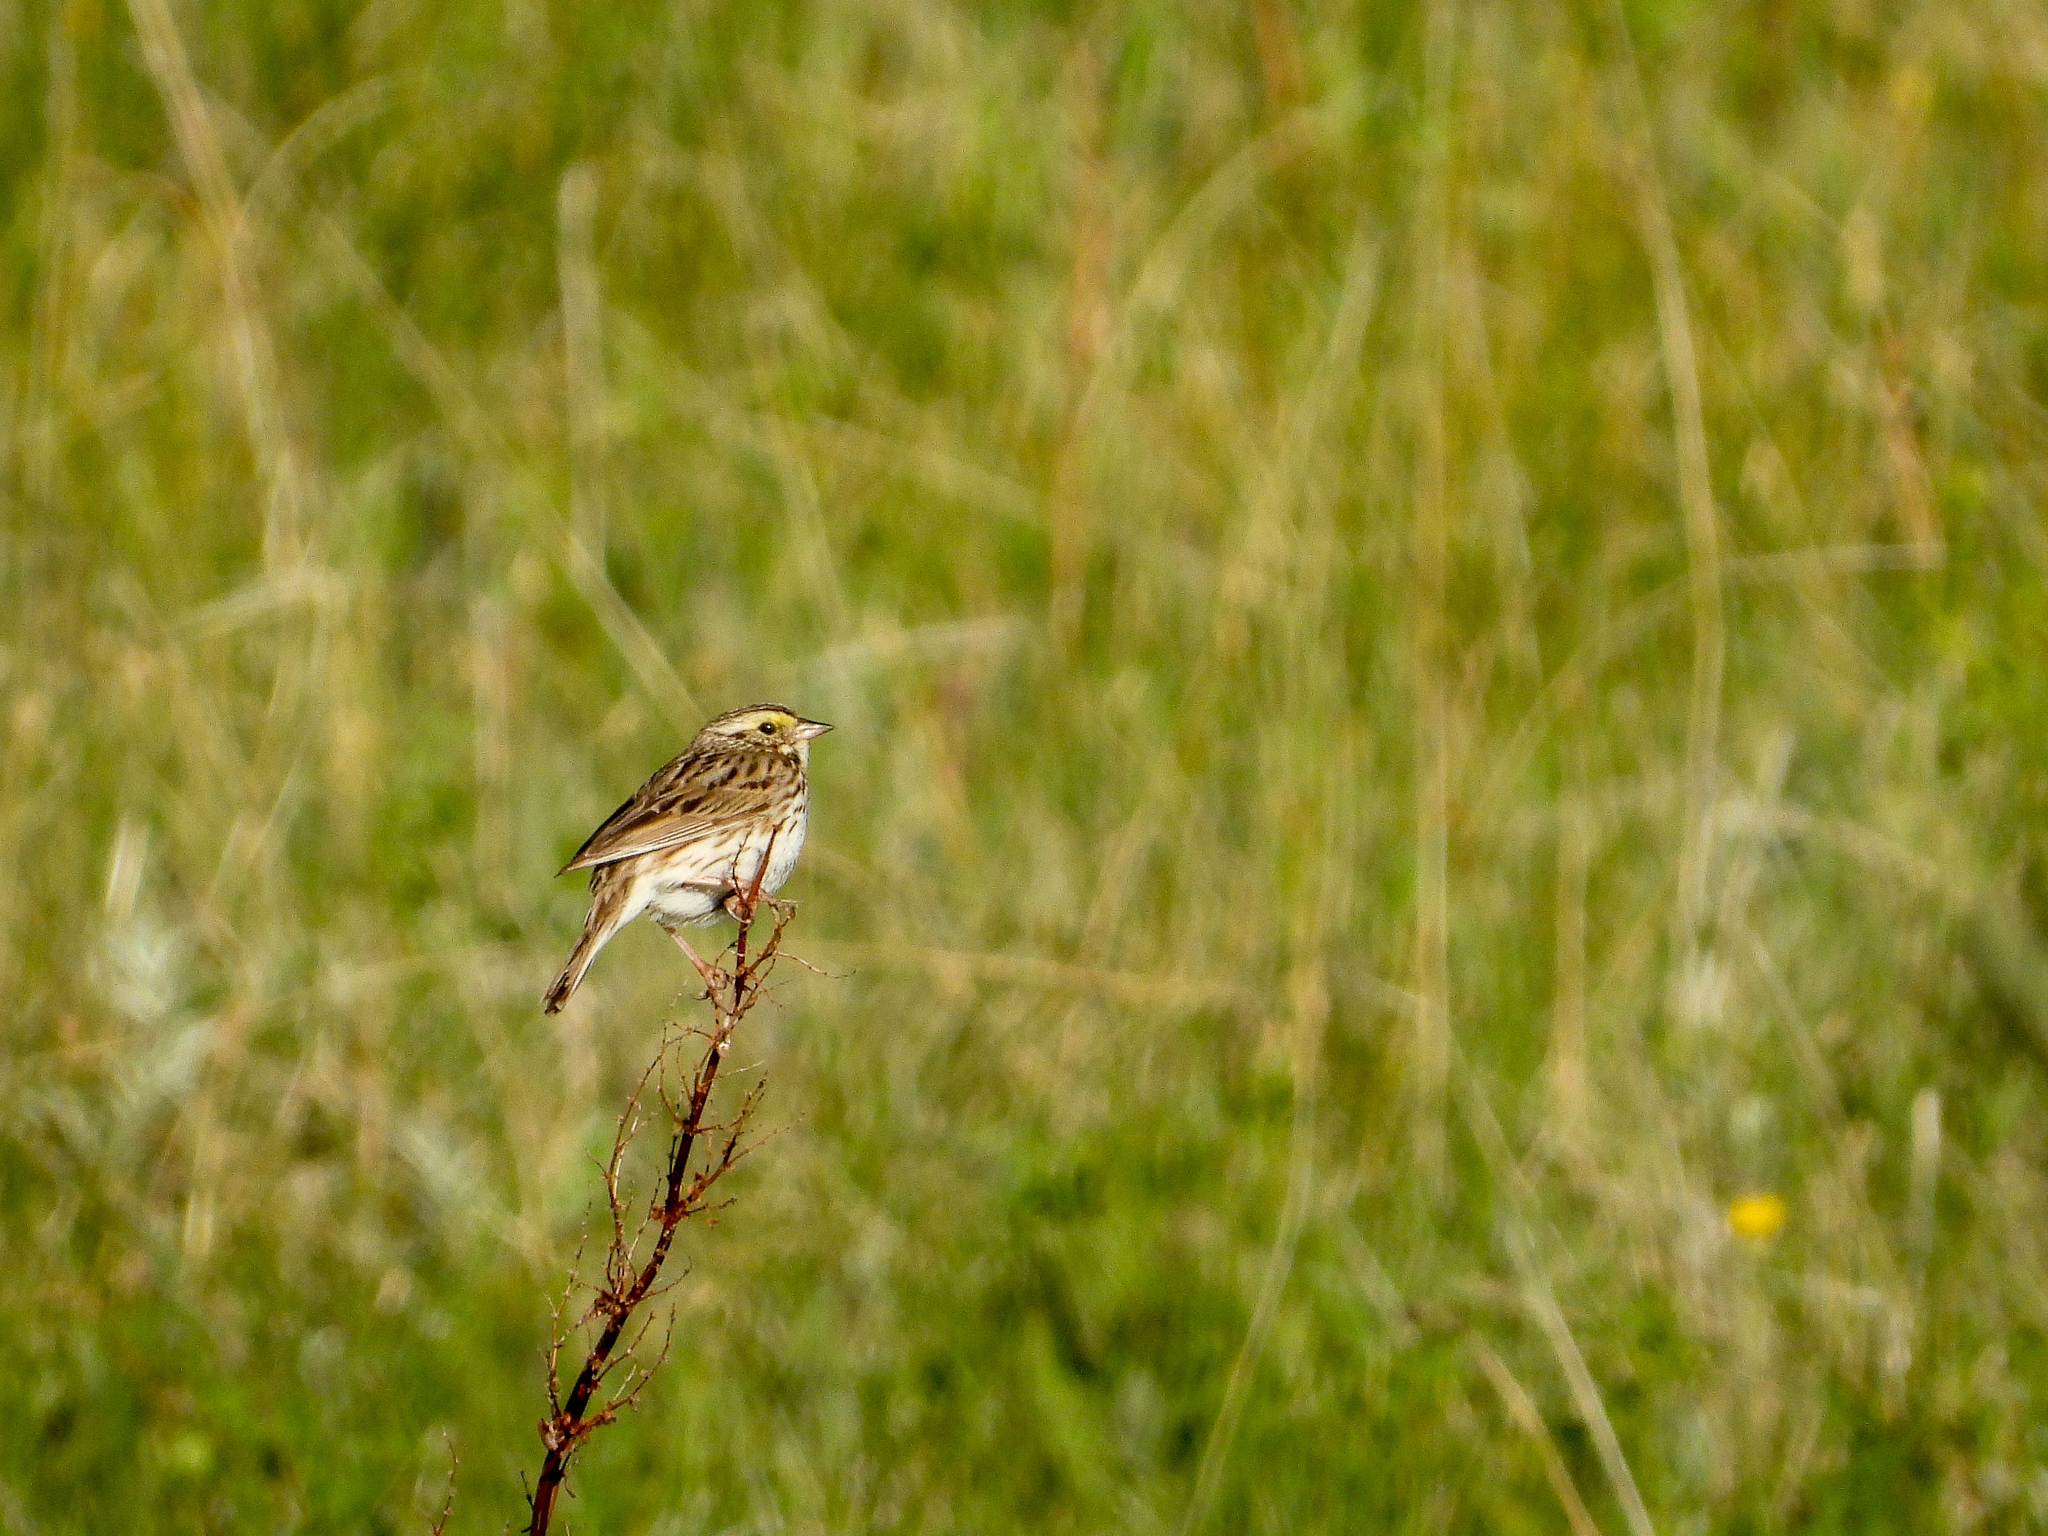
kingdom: Animalia
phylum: Chordata
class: Aves
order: Passeriformes
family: Passerellidae
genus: Passerculus
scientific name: Passerculus sandwichensis
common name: Savannah sparrow
